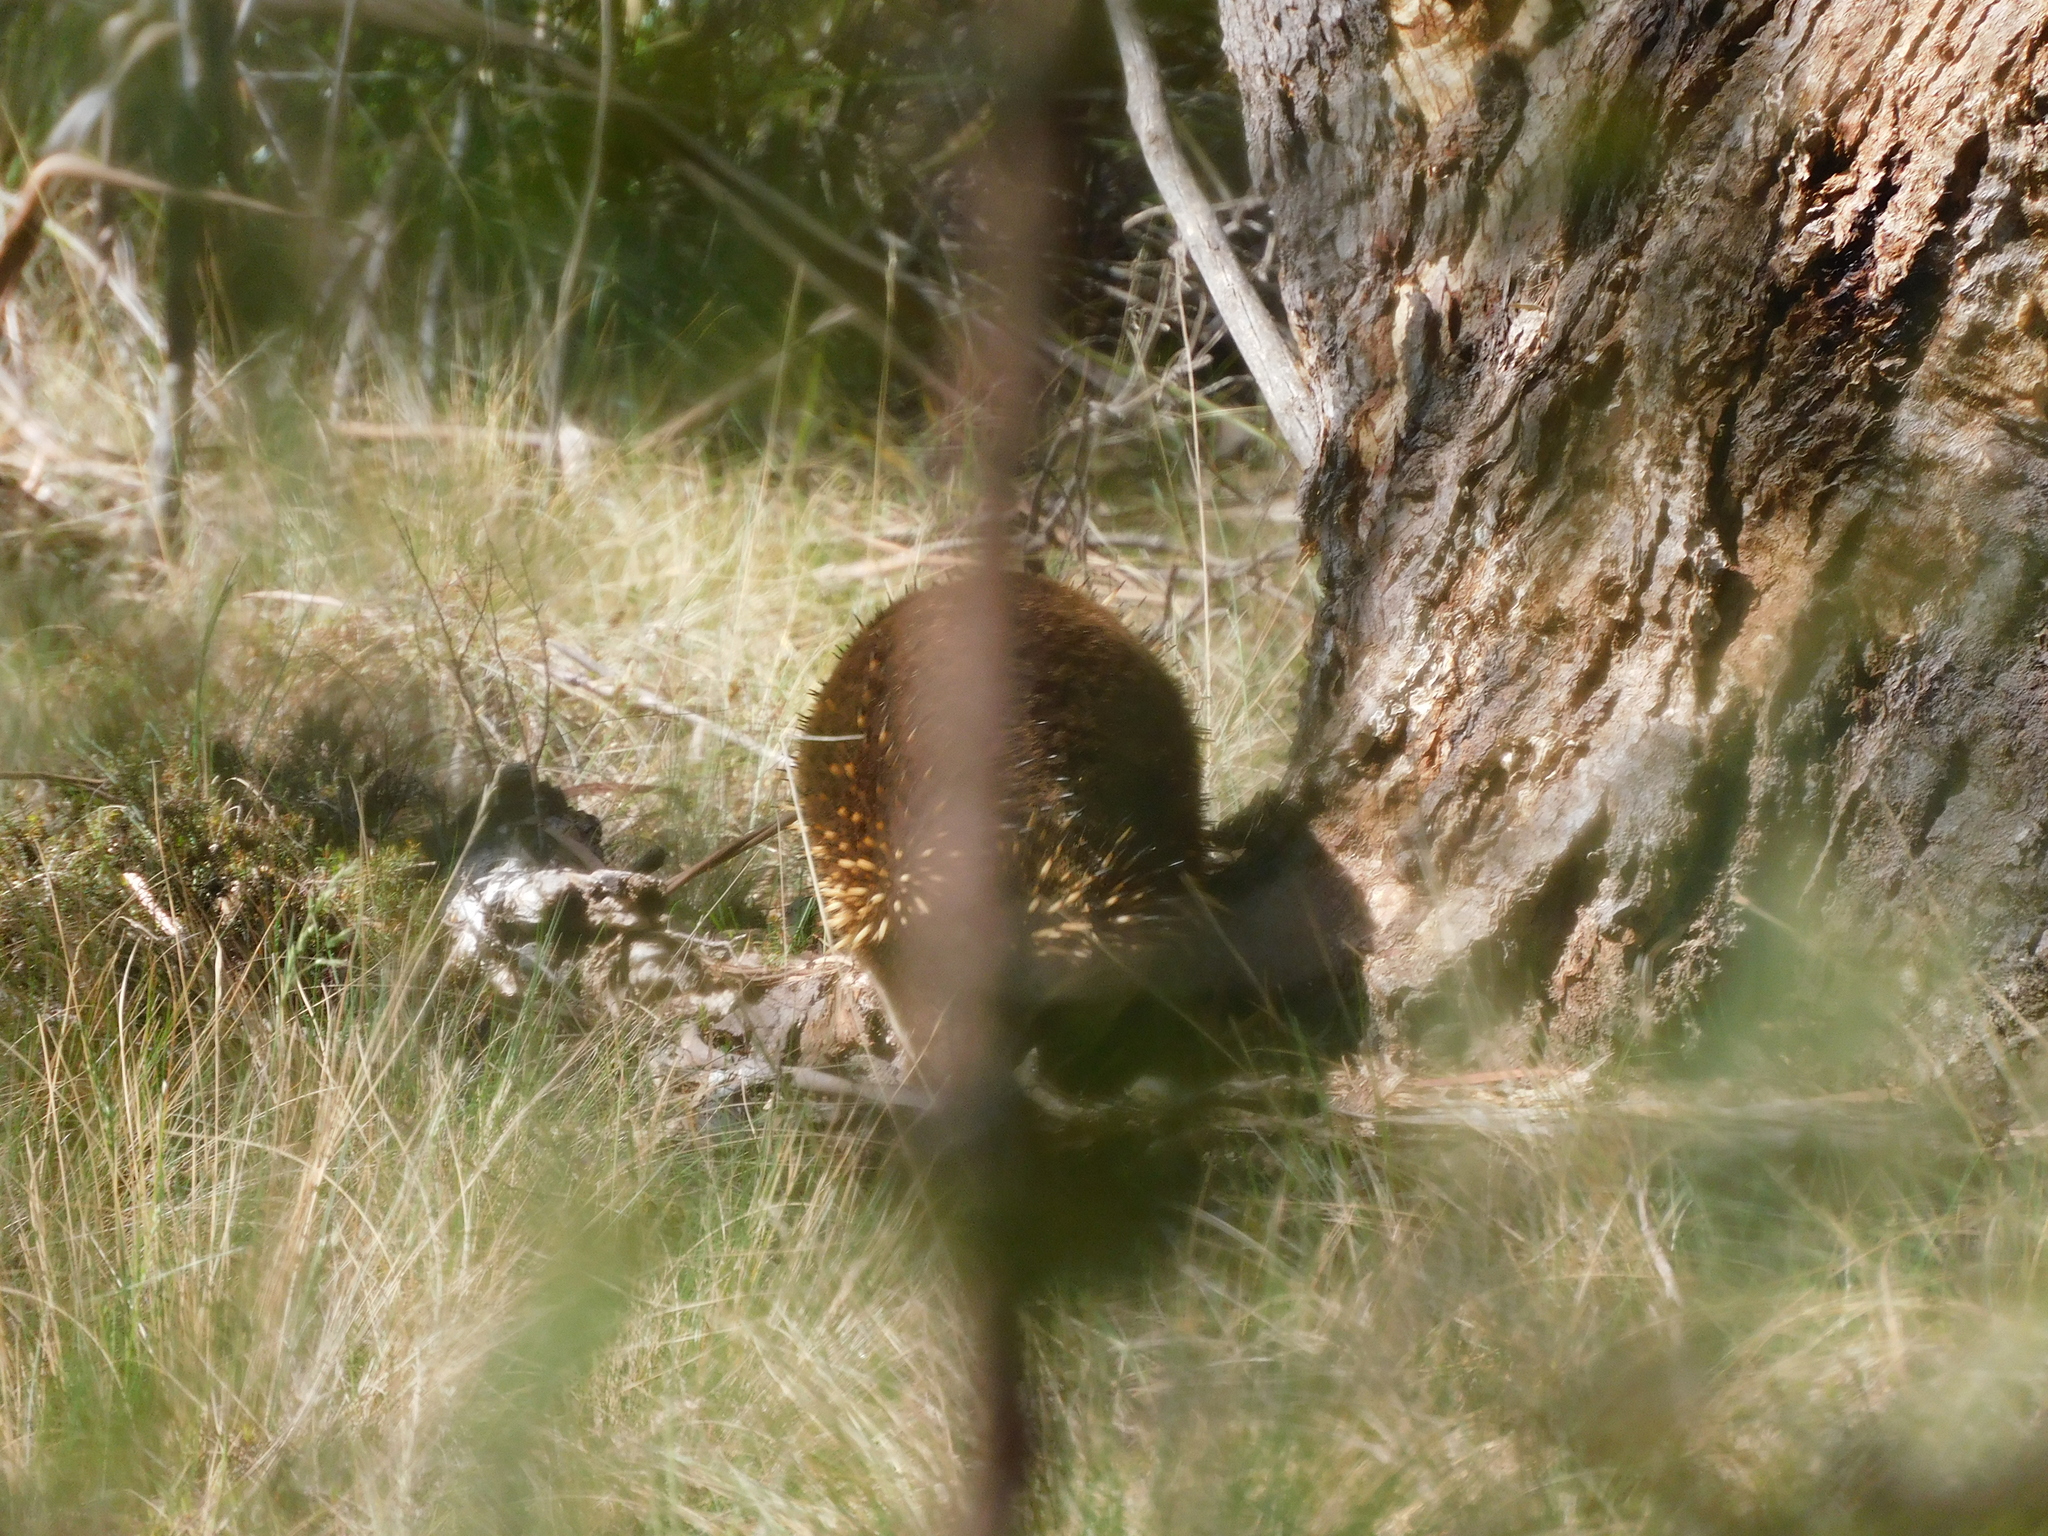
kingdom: Animalia
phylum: Chordata
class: Mammalia
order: Monotremata
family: Tachyglossidae
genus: Tachyglossus
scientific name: Tachyglossus aculeatus
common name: Short-beaked echidna
